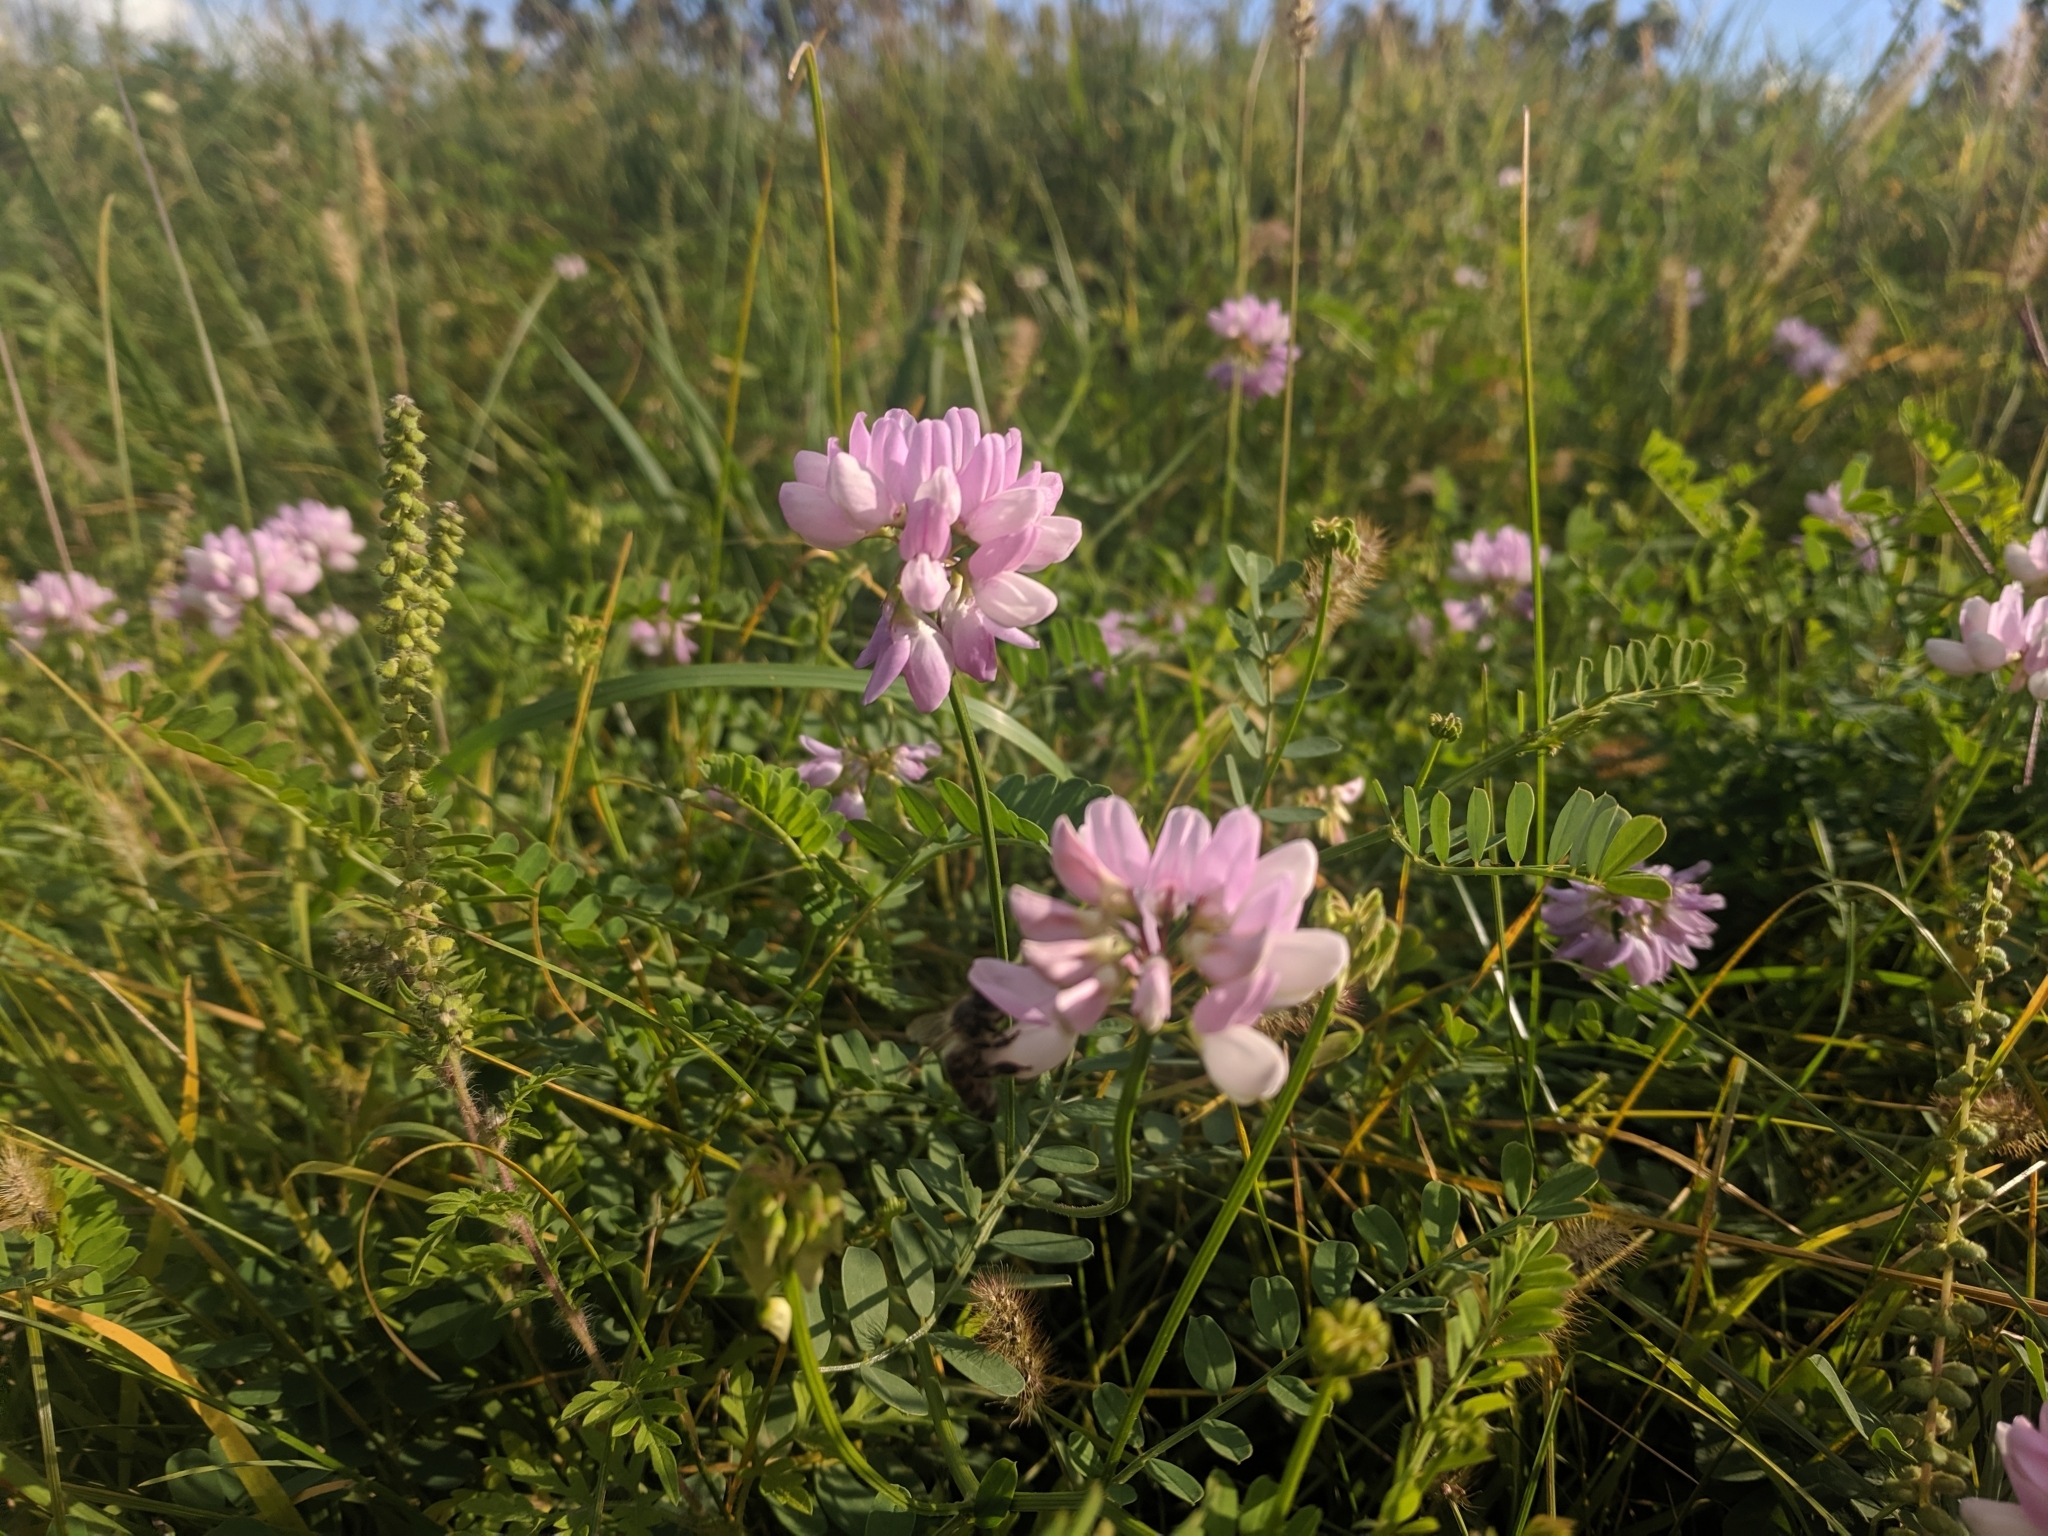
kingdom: Plantae
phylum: Tracheophyta
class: Magnoliopsida
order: Fabales
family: Fabaceae
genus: Coronilla
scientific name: Coronilla varia
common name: Crownvetch
